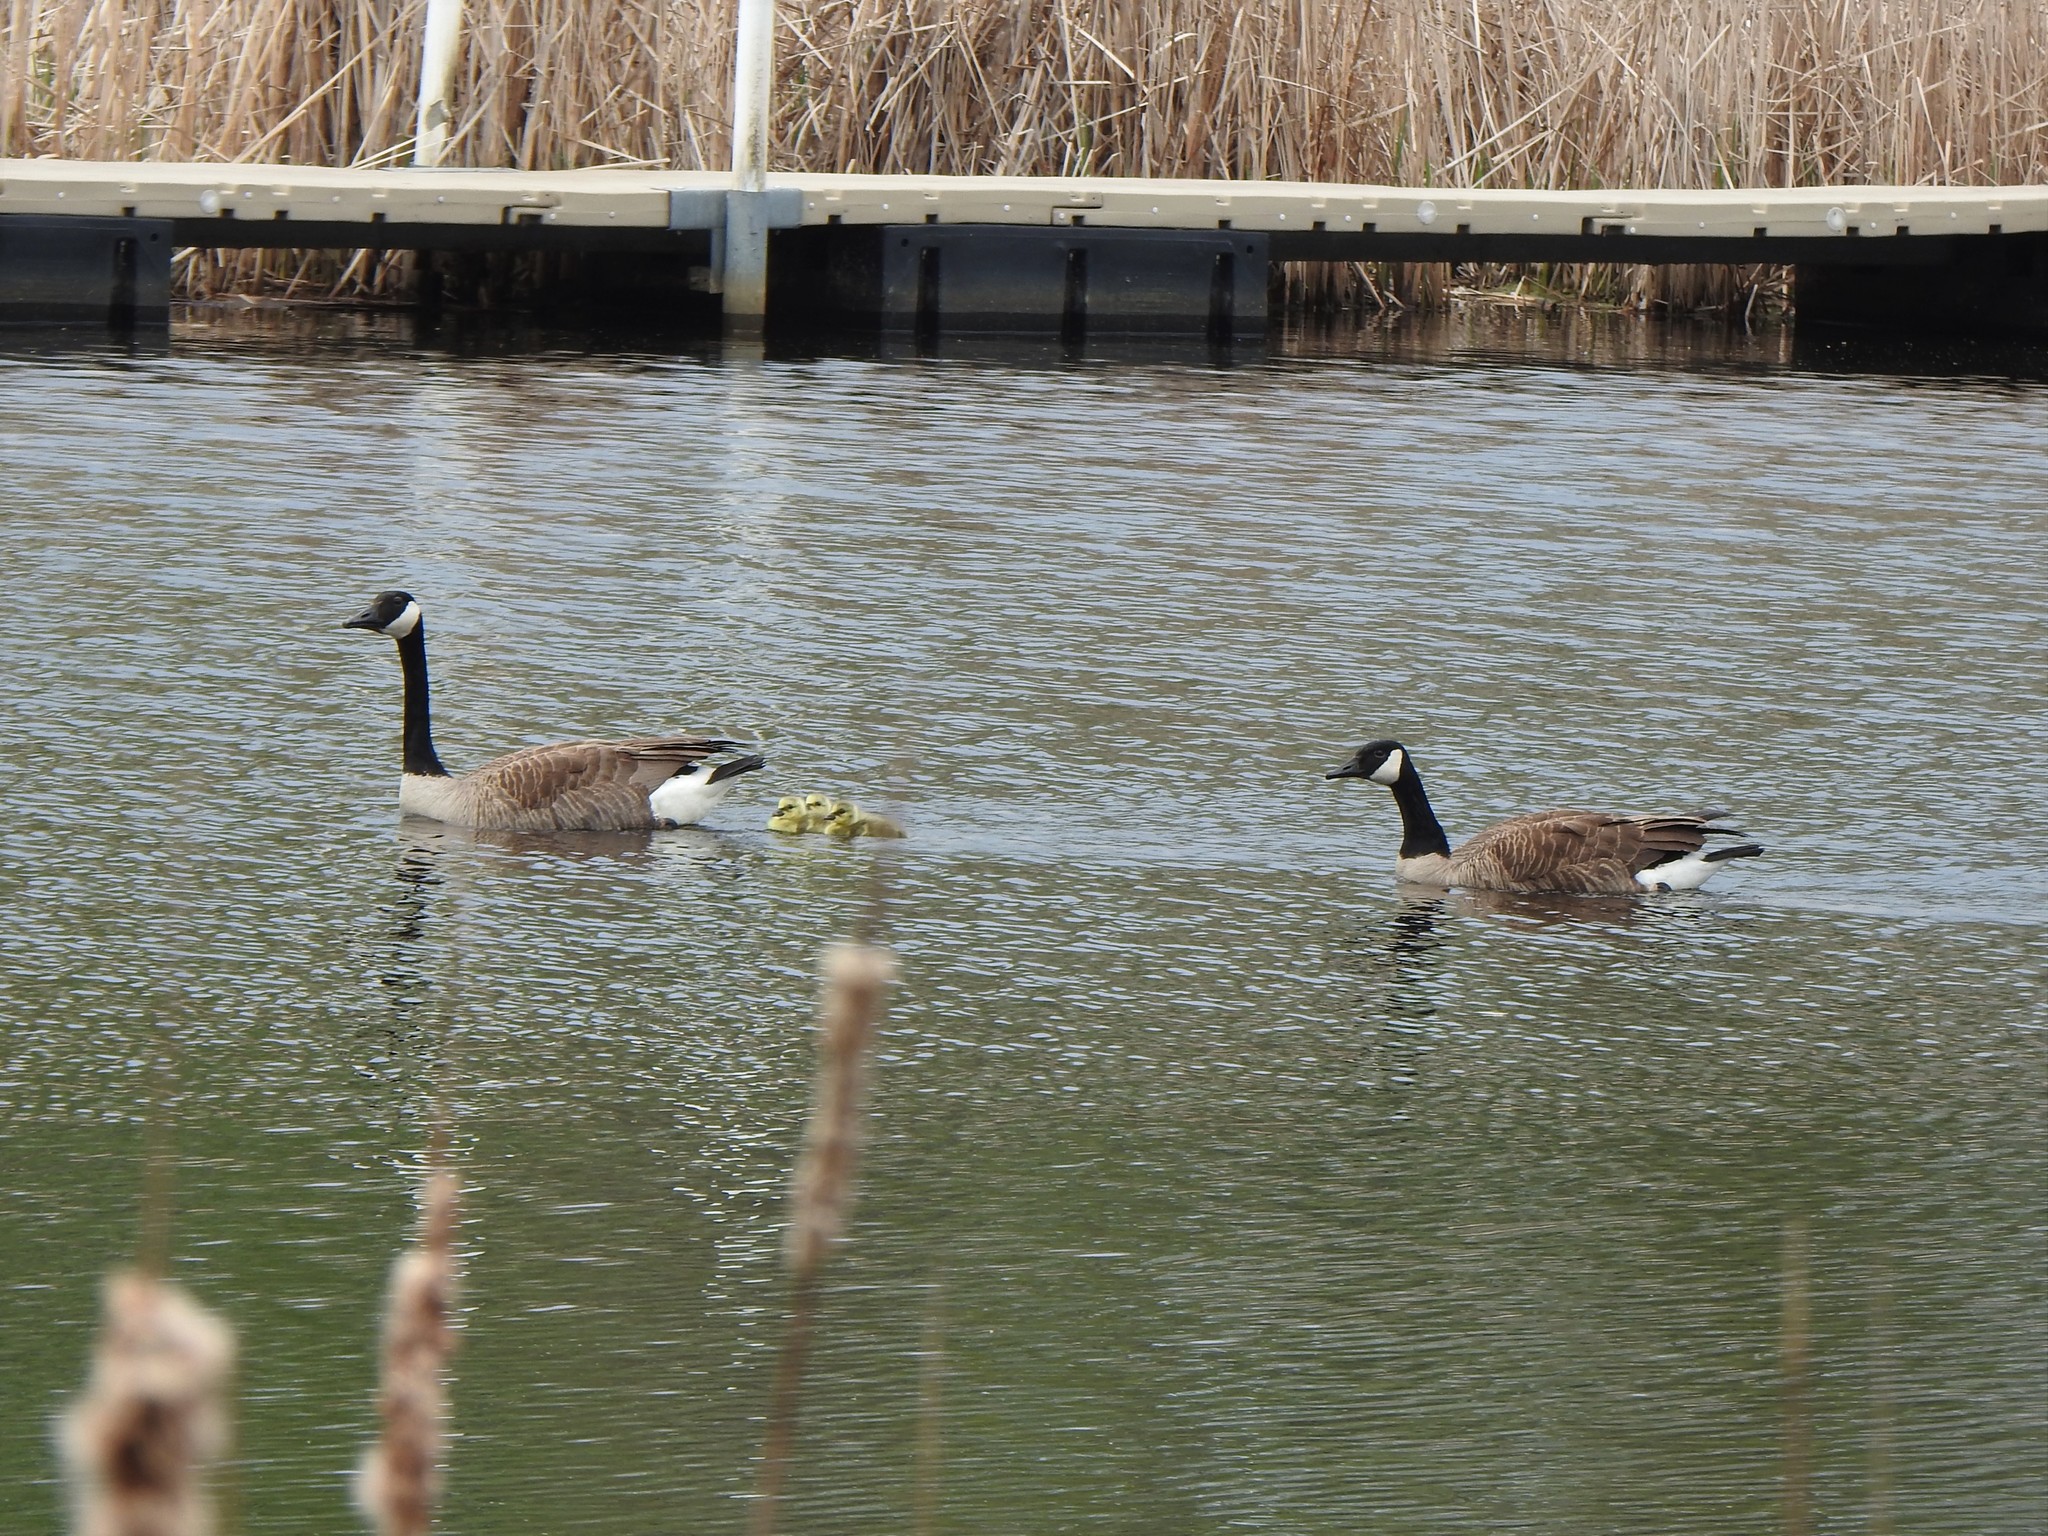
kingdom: Animalia
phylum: Chordata
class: Aves
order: Anseriformes
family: Anatidae
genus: Branta
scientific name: Branta canadensis
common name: Canada goose
